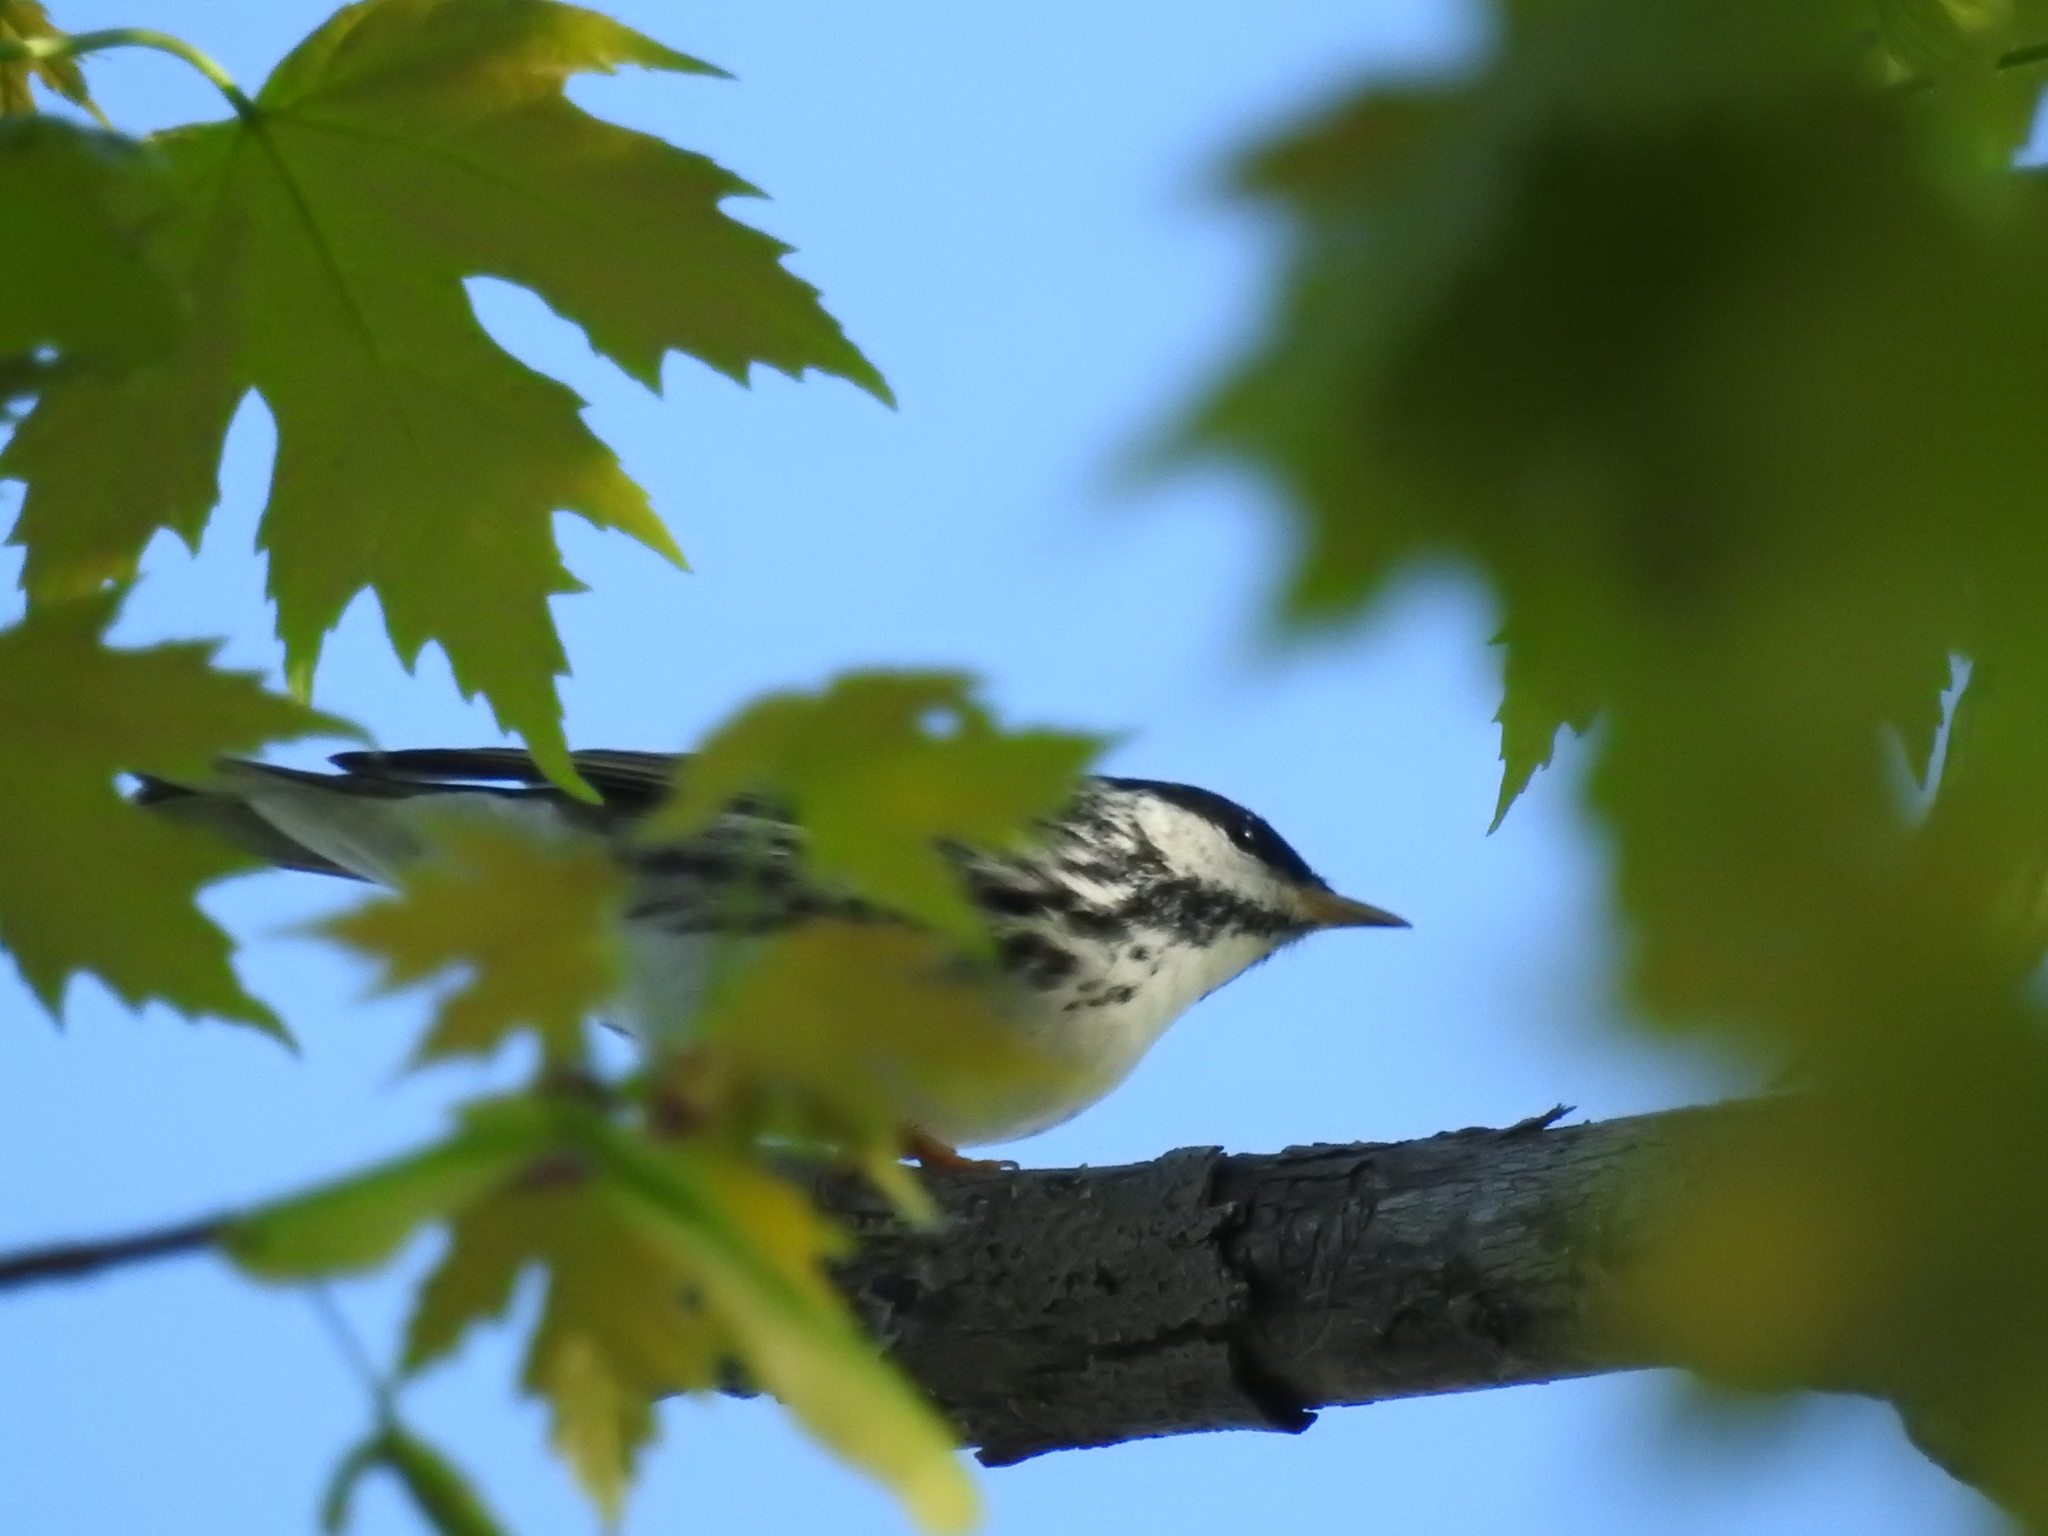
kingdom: Animalia
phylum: Chordata
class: Aves
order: Passeriformes
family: Parulidae
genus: Setophaga
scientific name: Setophaga striata
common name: Blackpoll warbler
